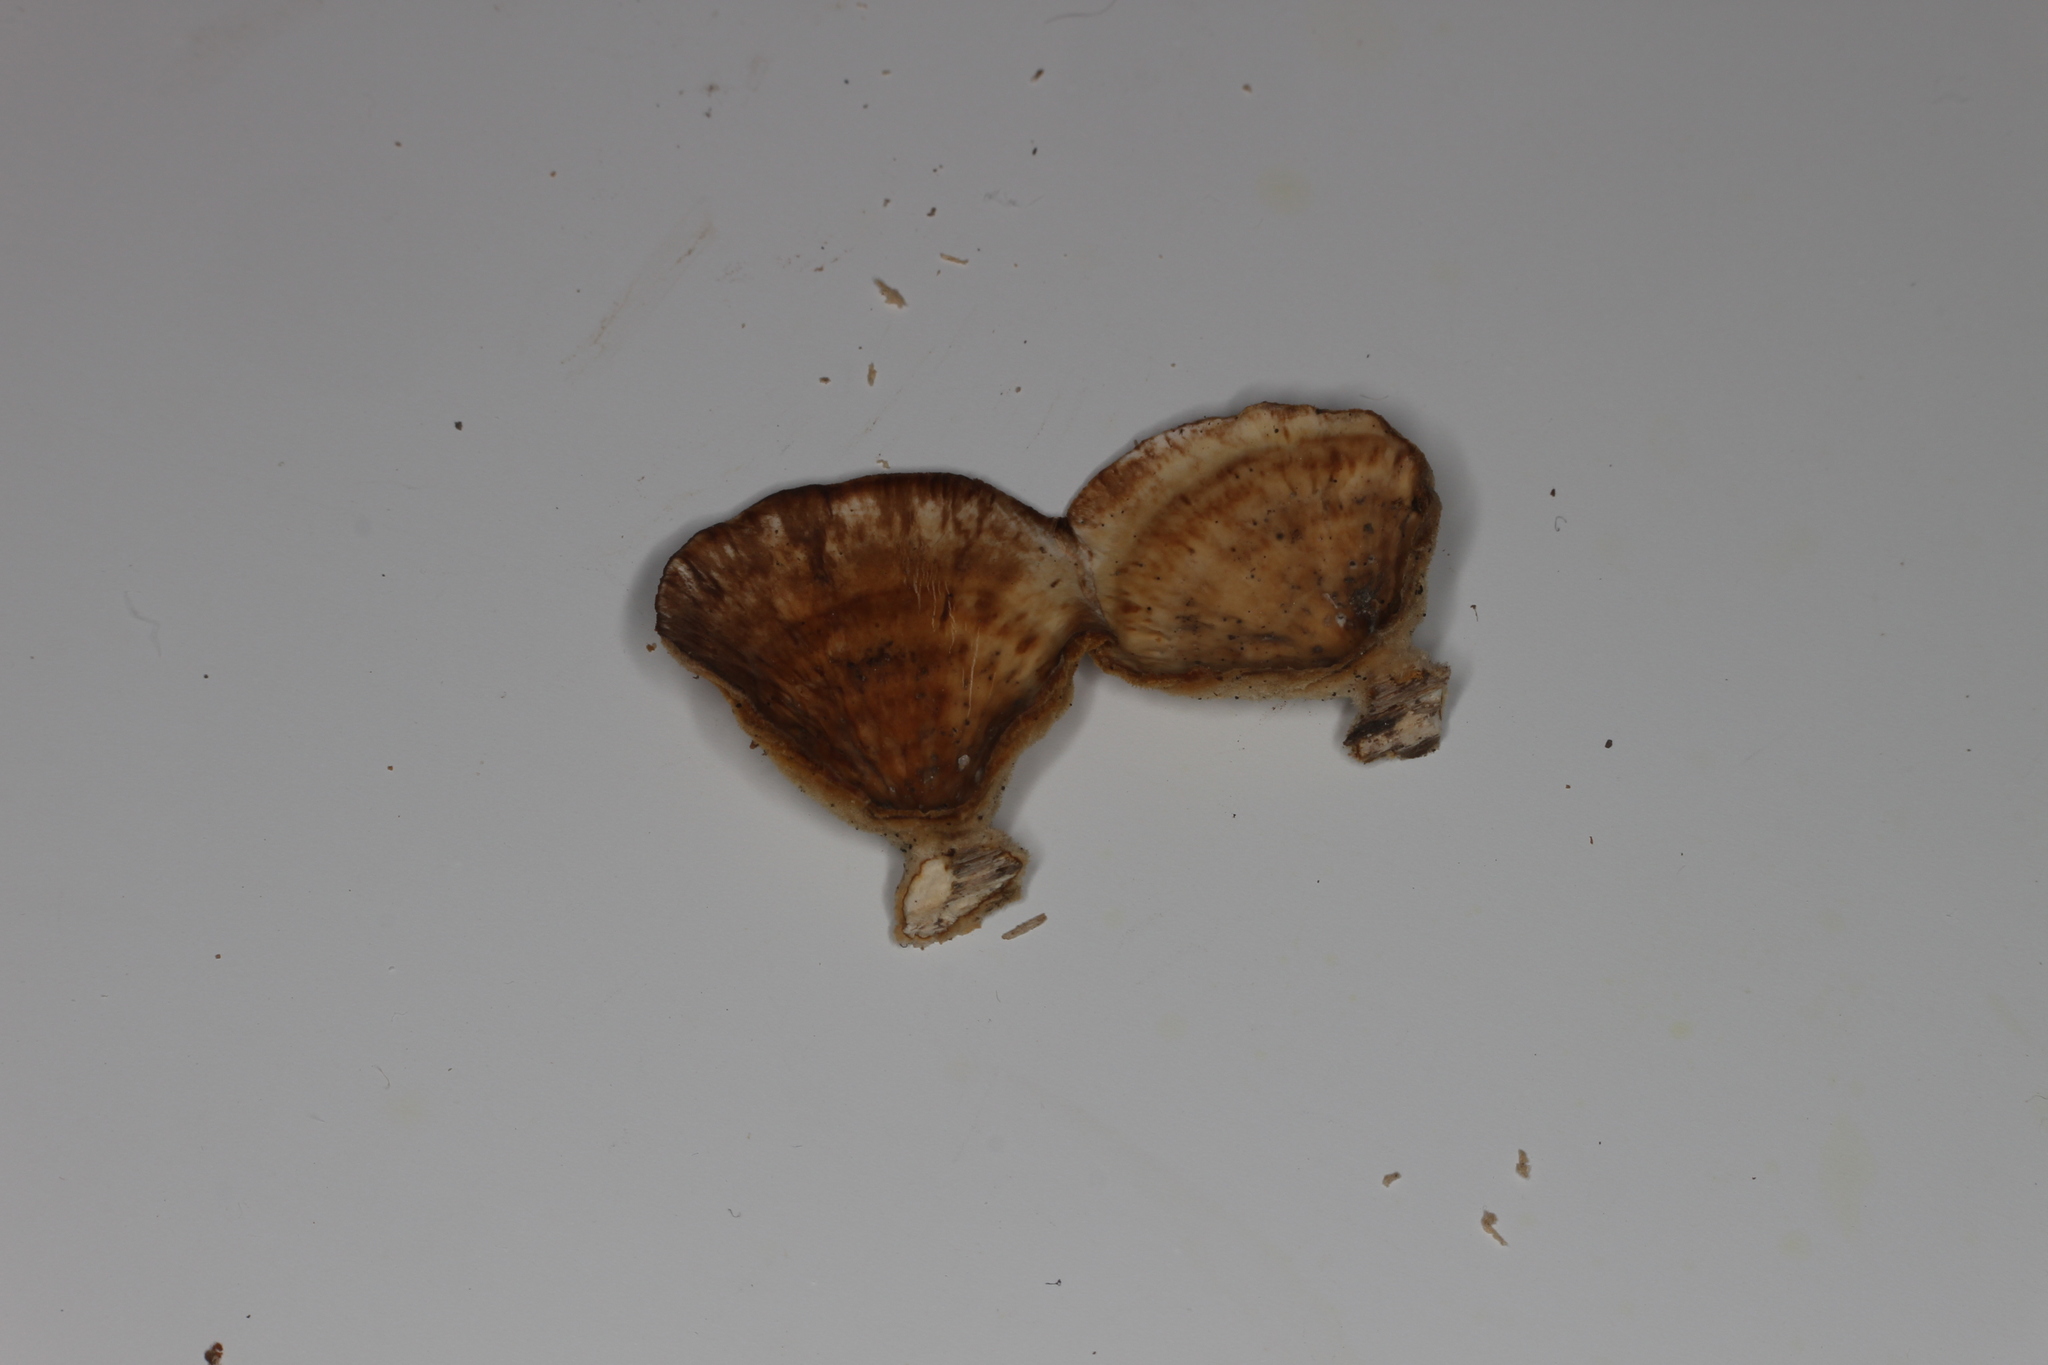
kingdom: Fungi
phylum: Basidiomycota
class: Agaricomycetes
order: Russulales
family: Stereaceae
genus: Stereum
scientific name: Stereum subtomentosum
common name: Yellowing curtain crust
